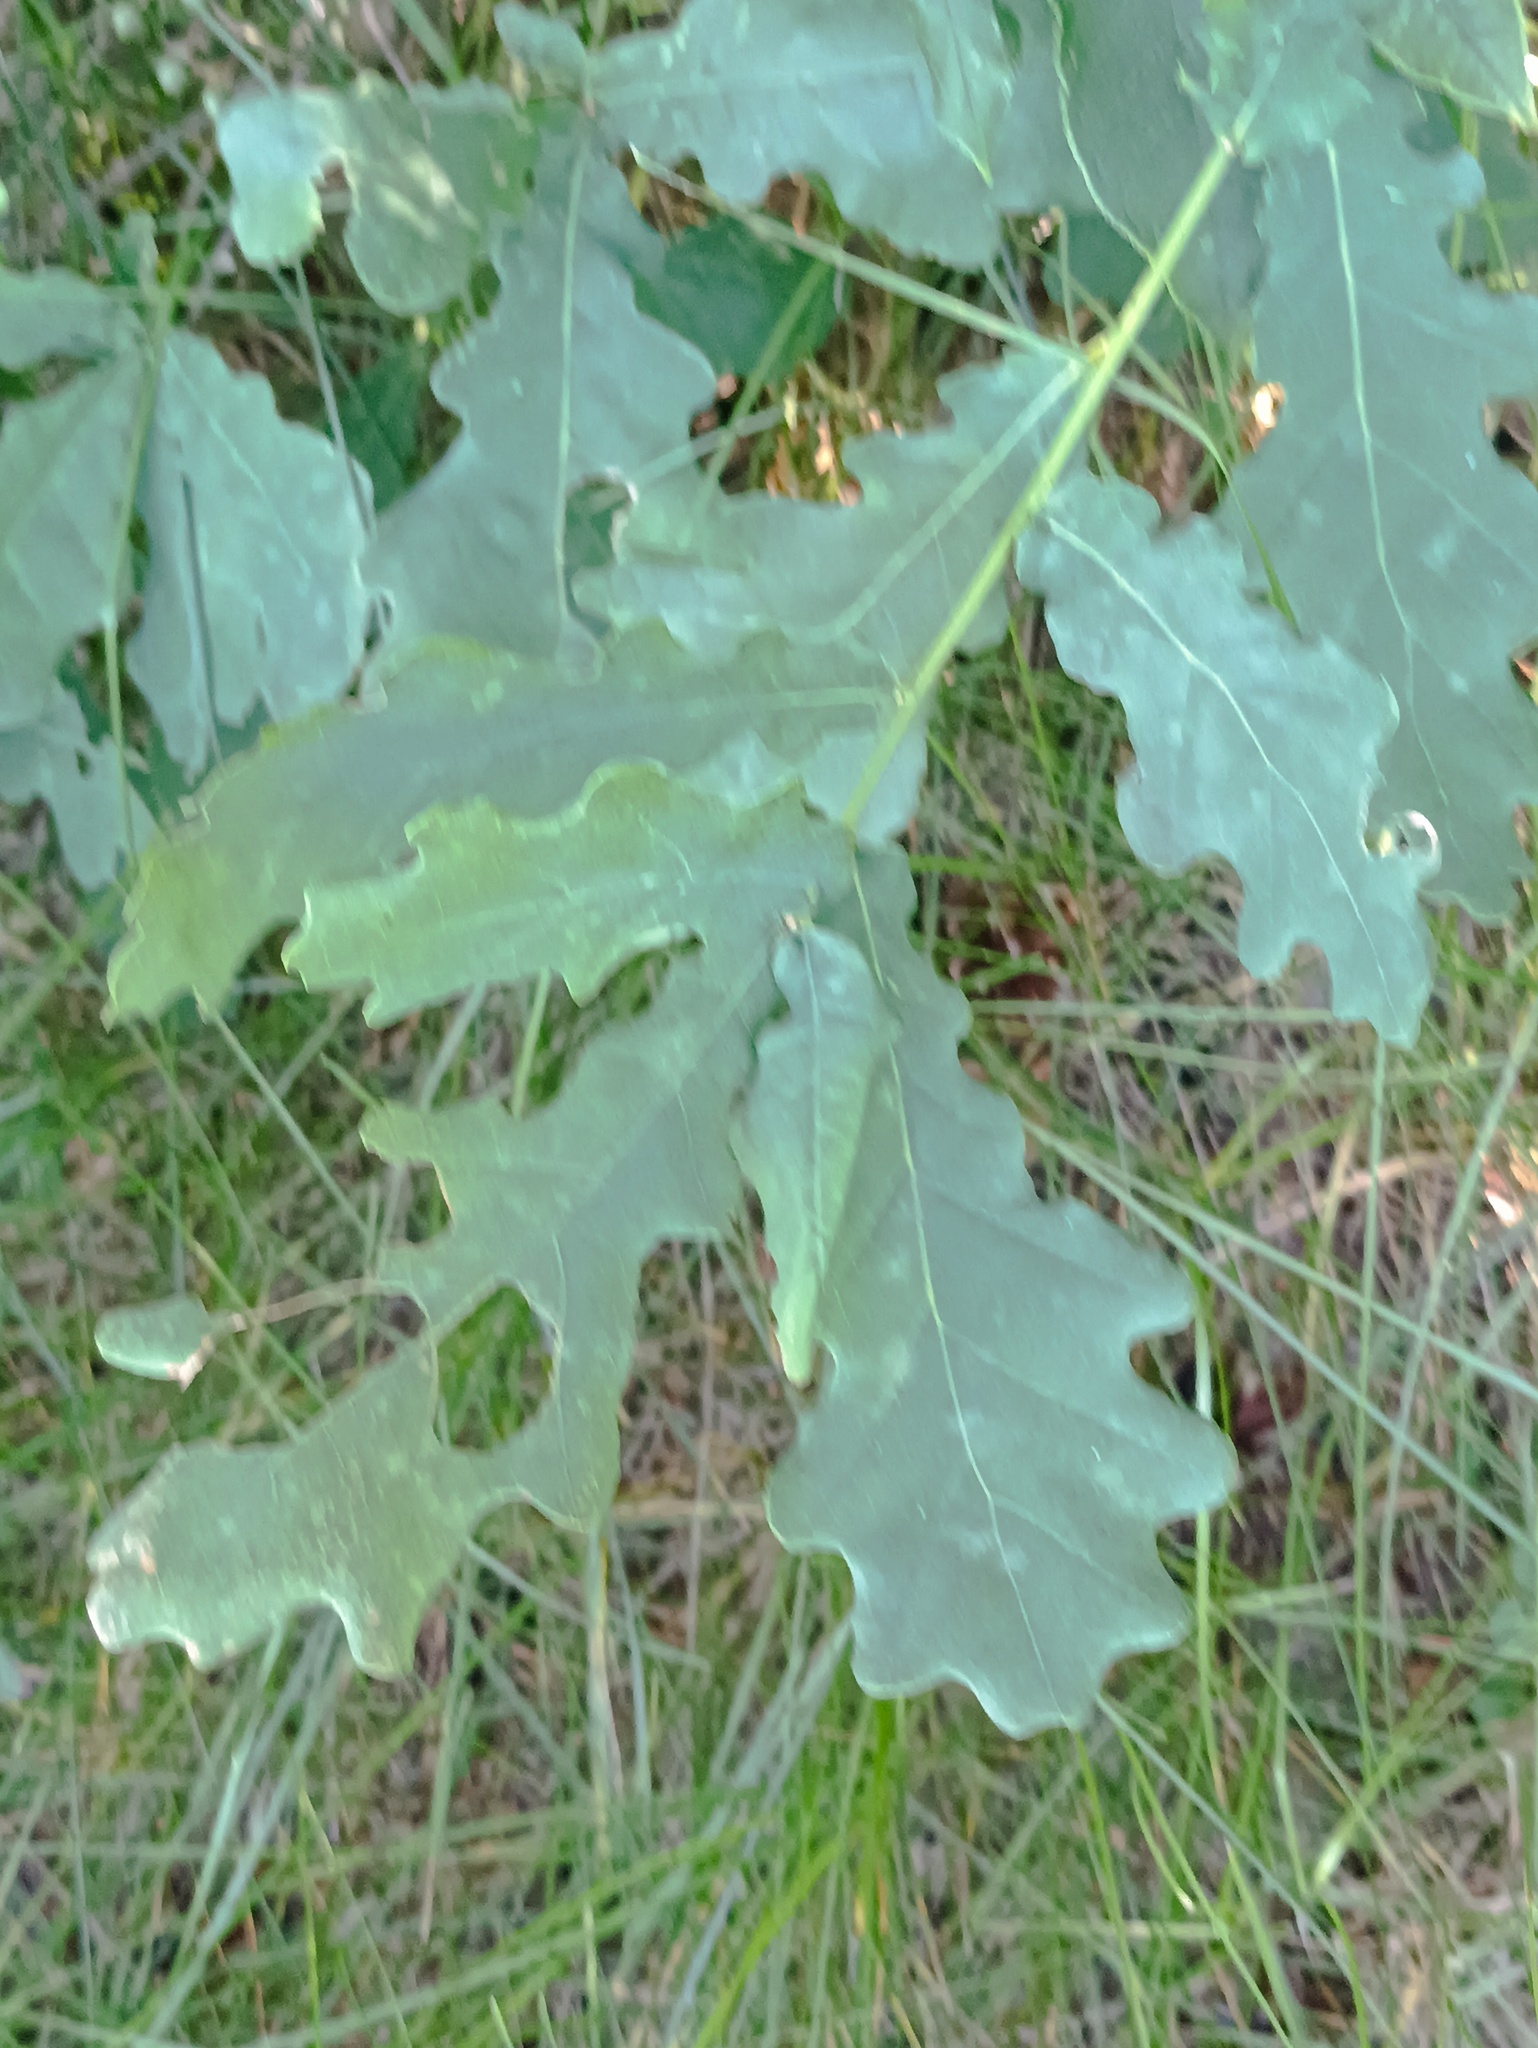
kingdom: Plantae
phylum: Tracheophyta
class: Magnoliopsida
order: Fagales
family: Fagaceae
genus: Quercus
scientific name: Quercus robur
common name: Pedunculate oak
